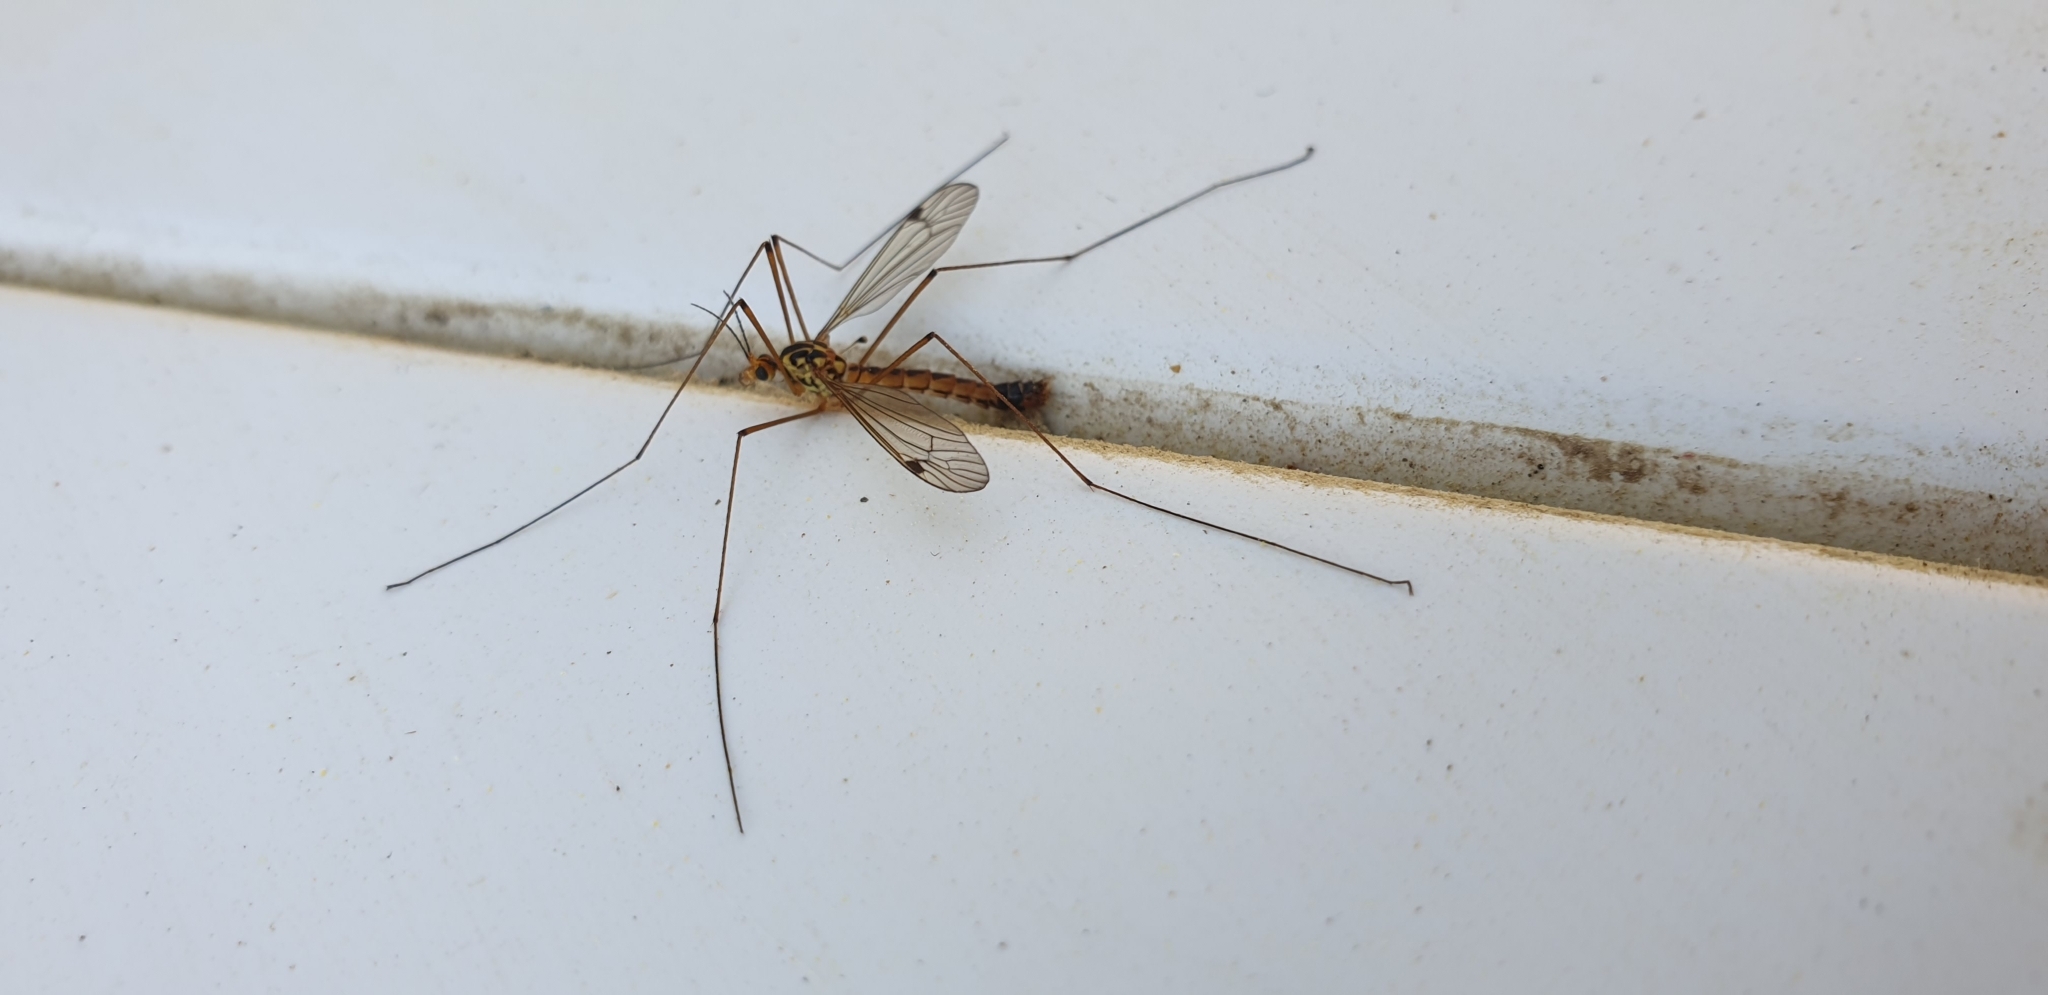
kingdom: Animalia
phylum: Arthropoda
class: Insecta
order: Diptera
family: Tipulidae
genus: Nephrotoma
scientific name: Nephrotoma guestfalica
